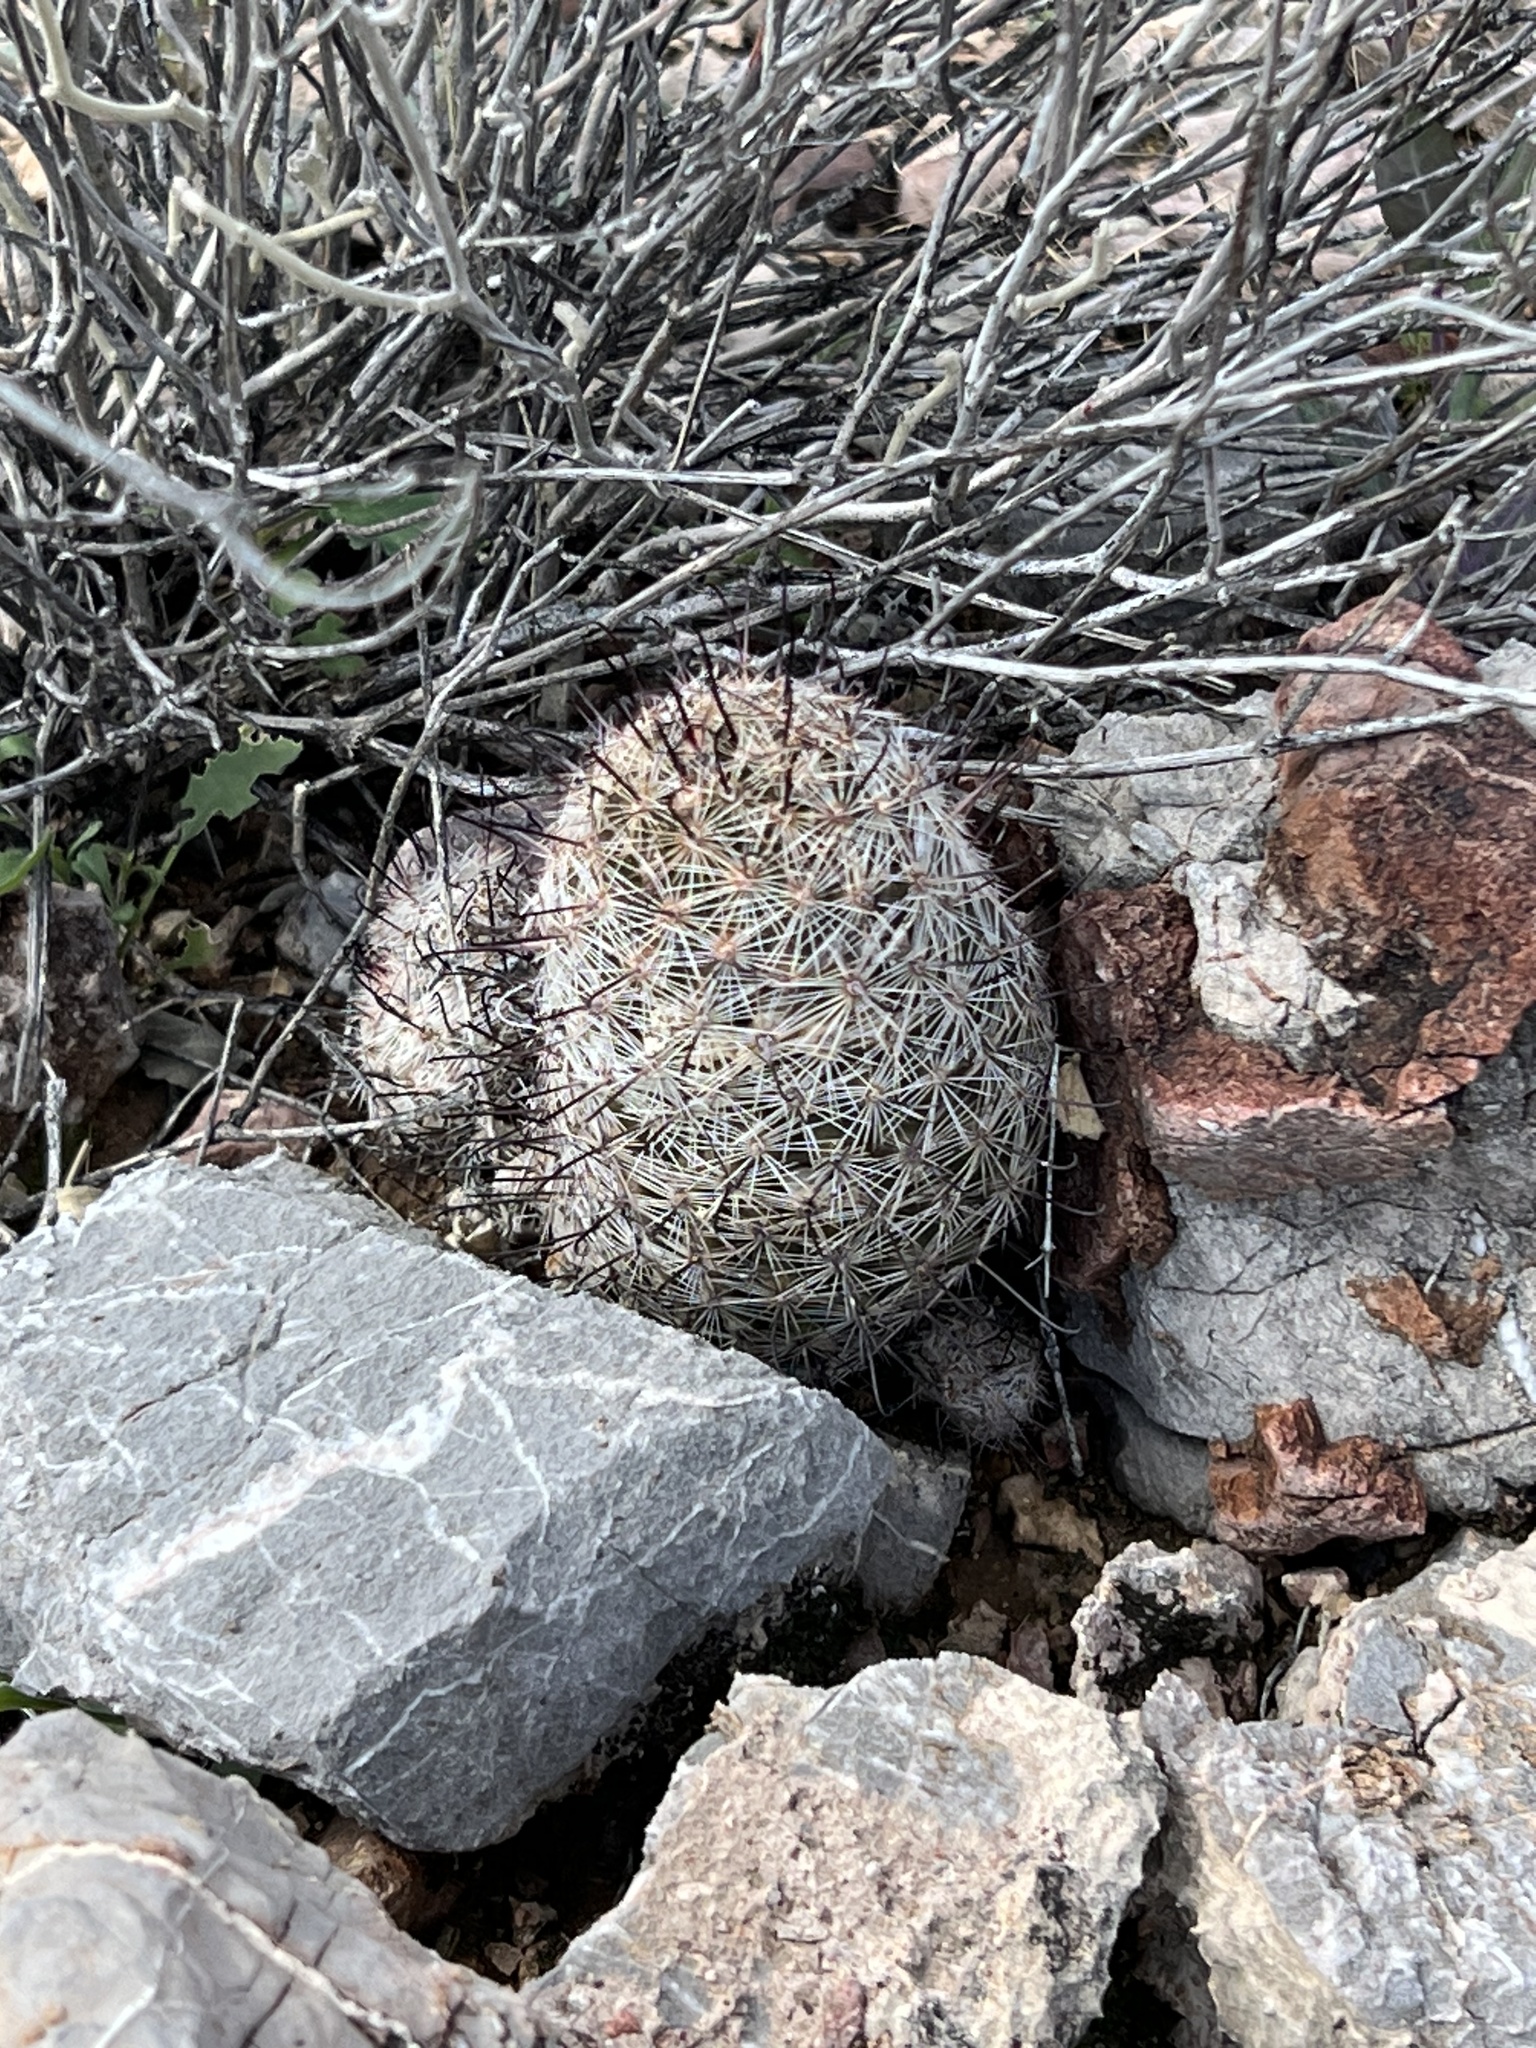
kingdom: Plantae
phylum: Tracheophyta
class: Magnoliopsida
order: Caryophyllales
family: Cactaceae
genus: Cochemiea
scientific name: Cochemiea grahamii
